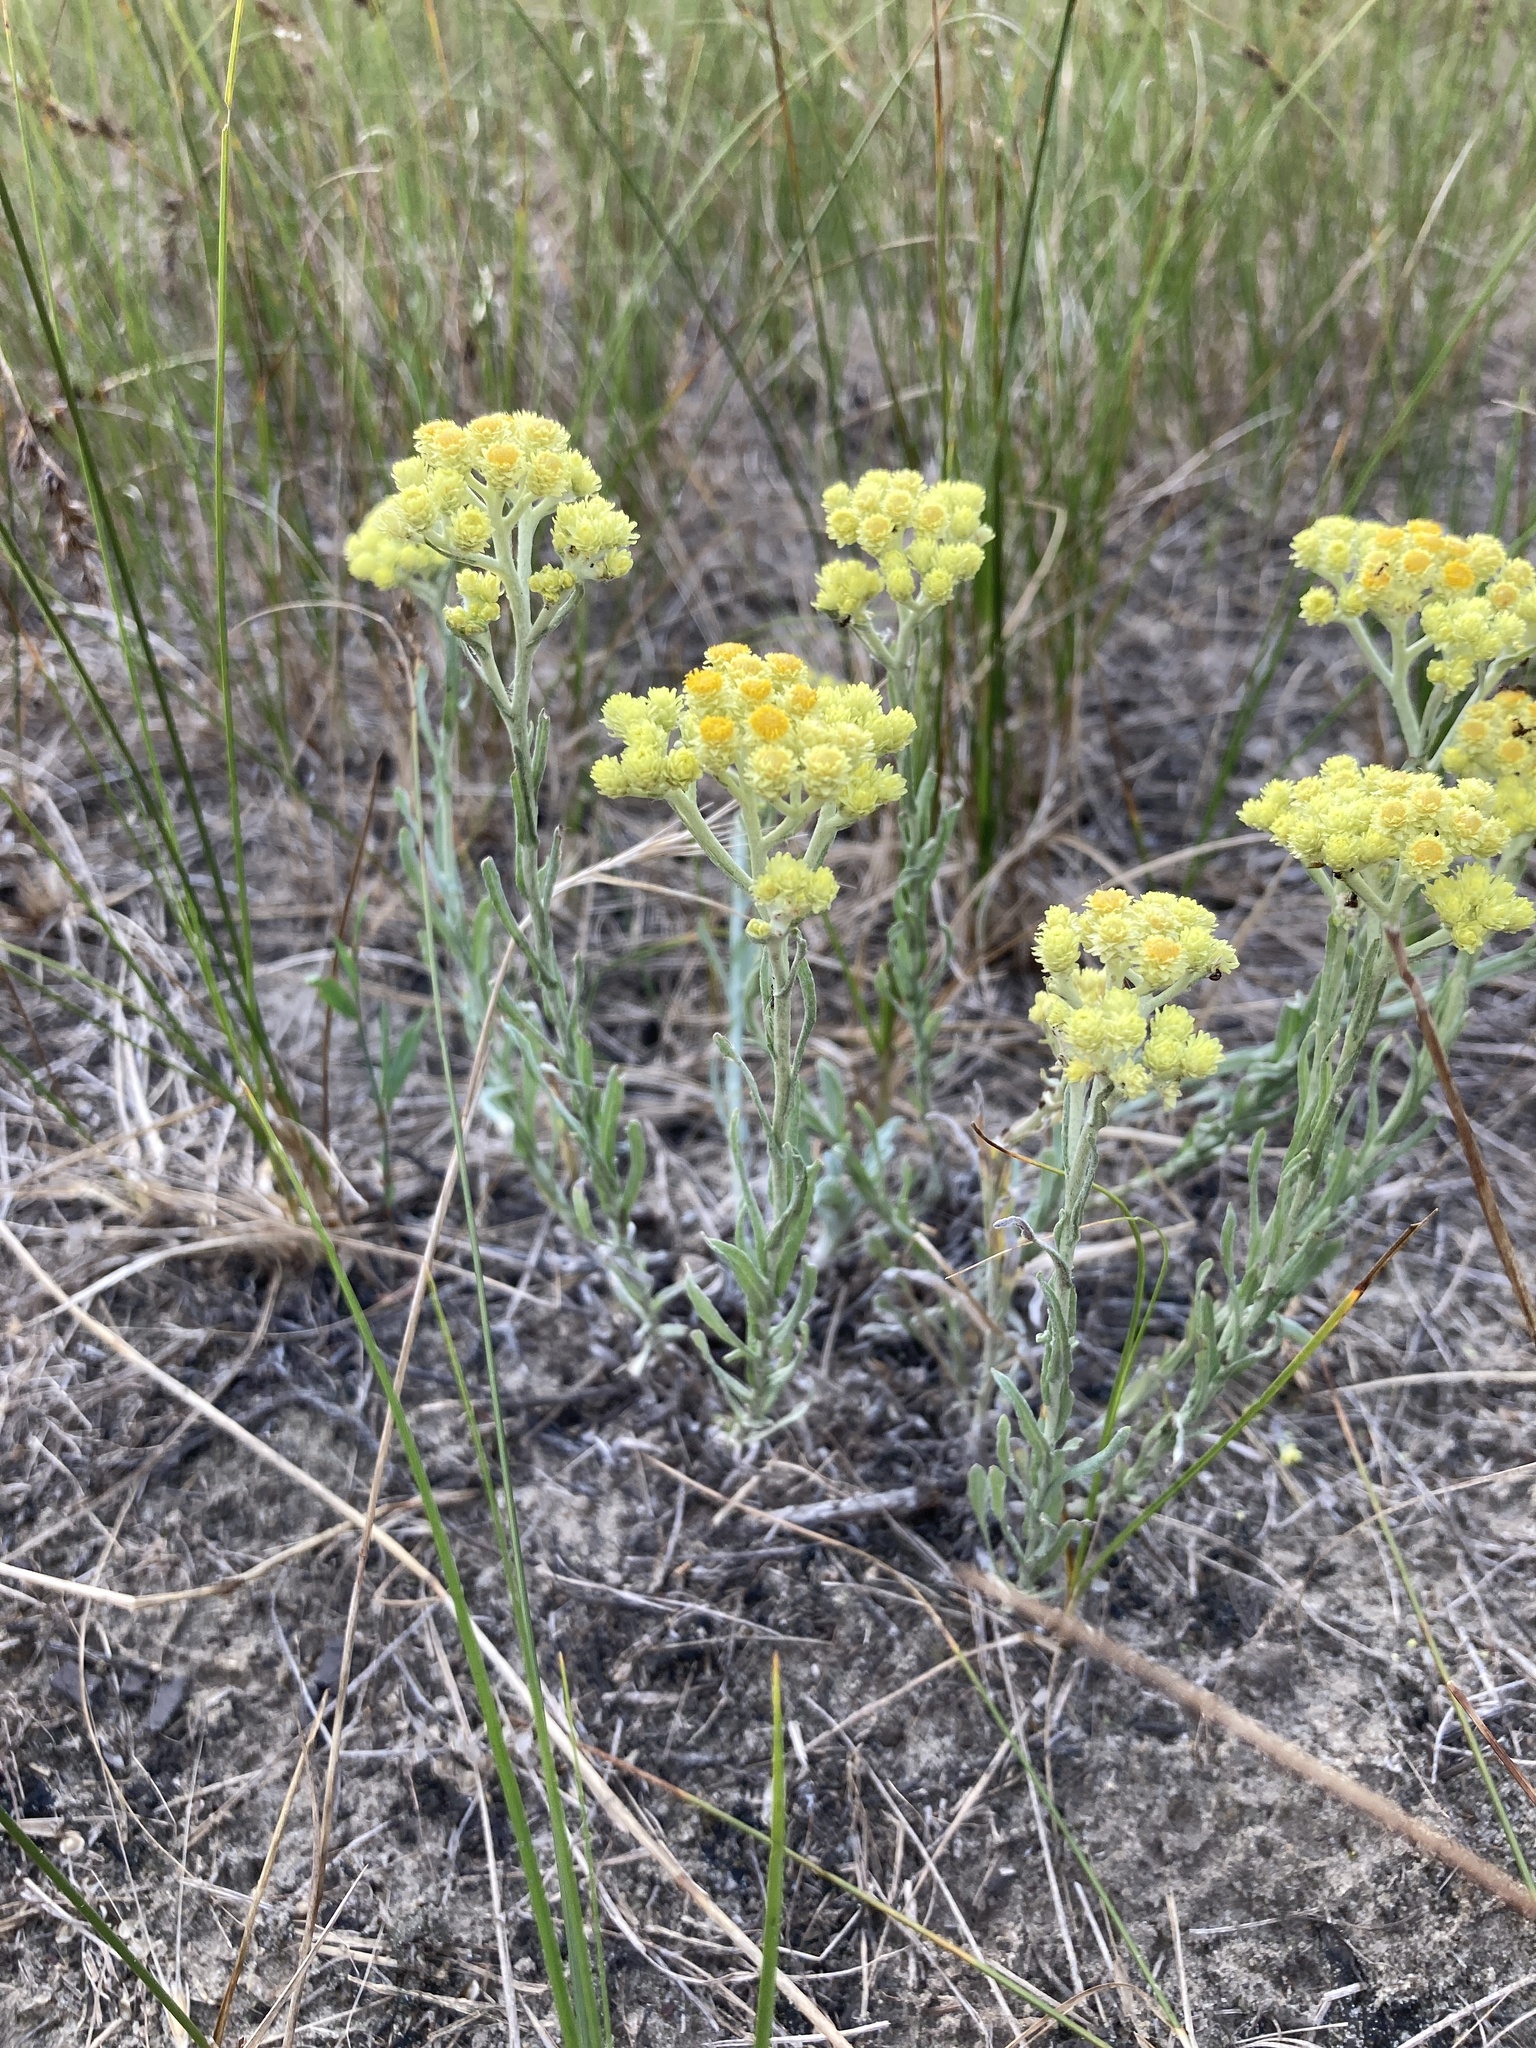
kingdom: Plantae
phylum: Tracheophyta
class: Magnoliopsida
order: Asterales
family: Asteraceae
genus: Helichrysum
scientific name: Helichrysum arenarium
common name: Strawflower
